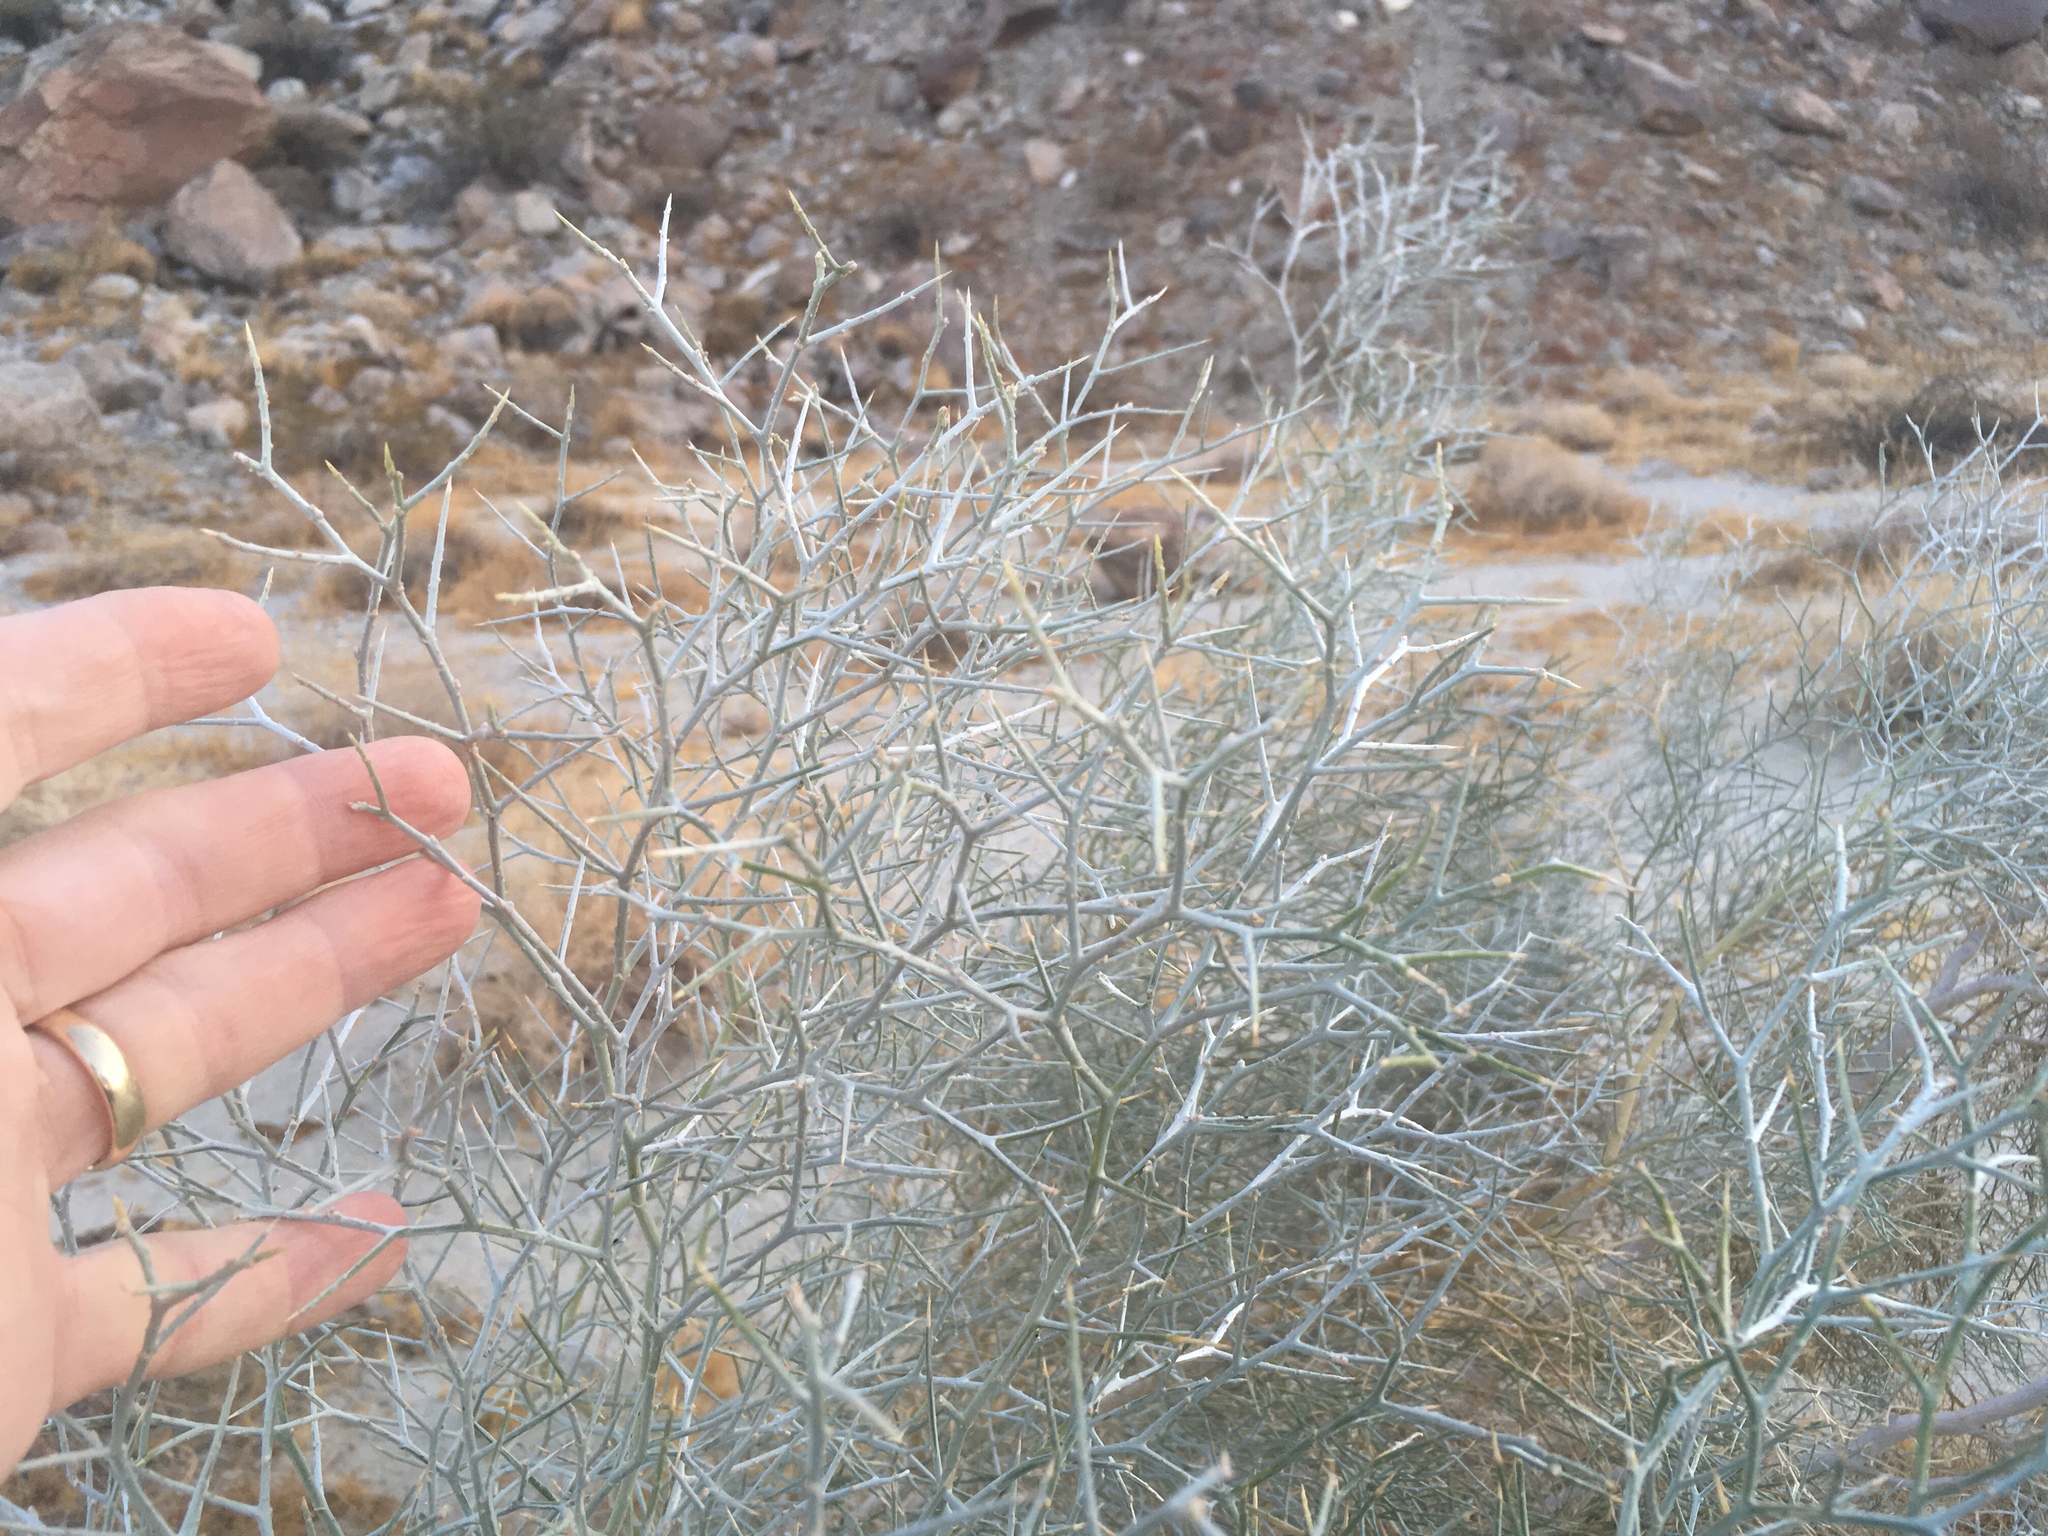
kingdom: Plantae
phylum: Tracheophyta
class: Magnoliopsida
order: Fabales
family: Fabaceae
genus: Psorothamnus
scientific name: Psorothamnus spinosus
